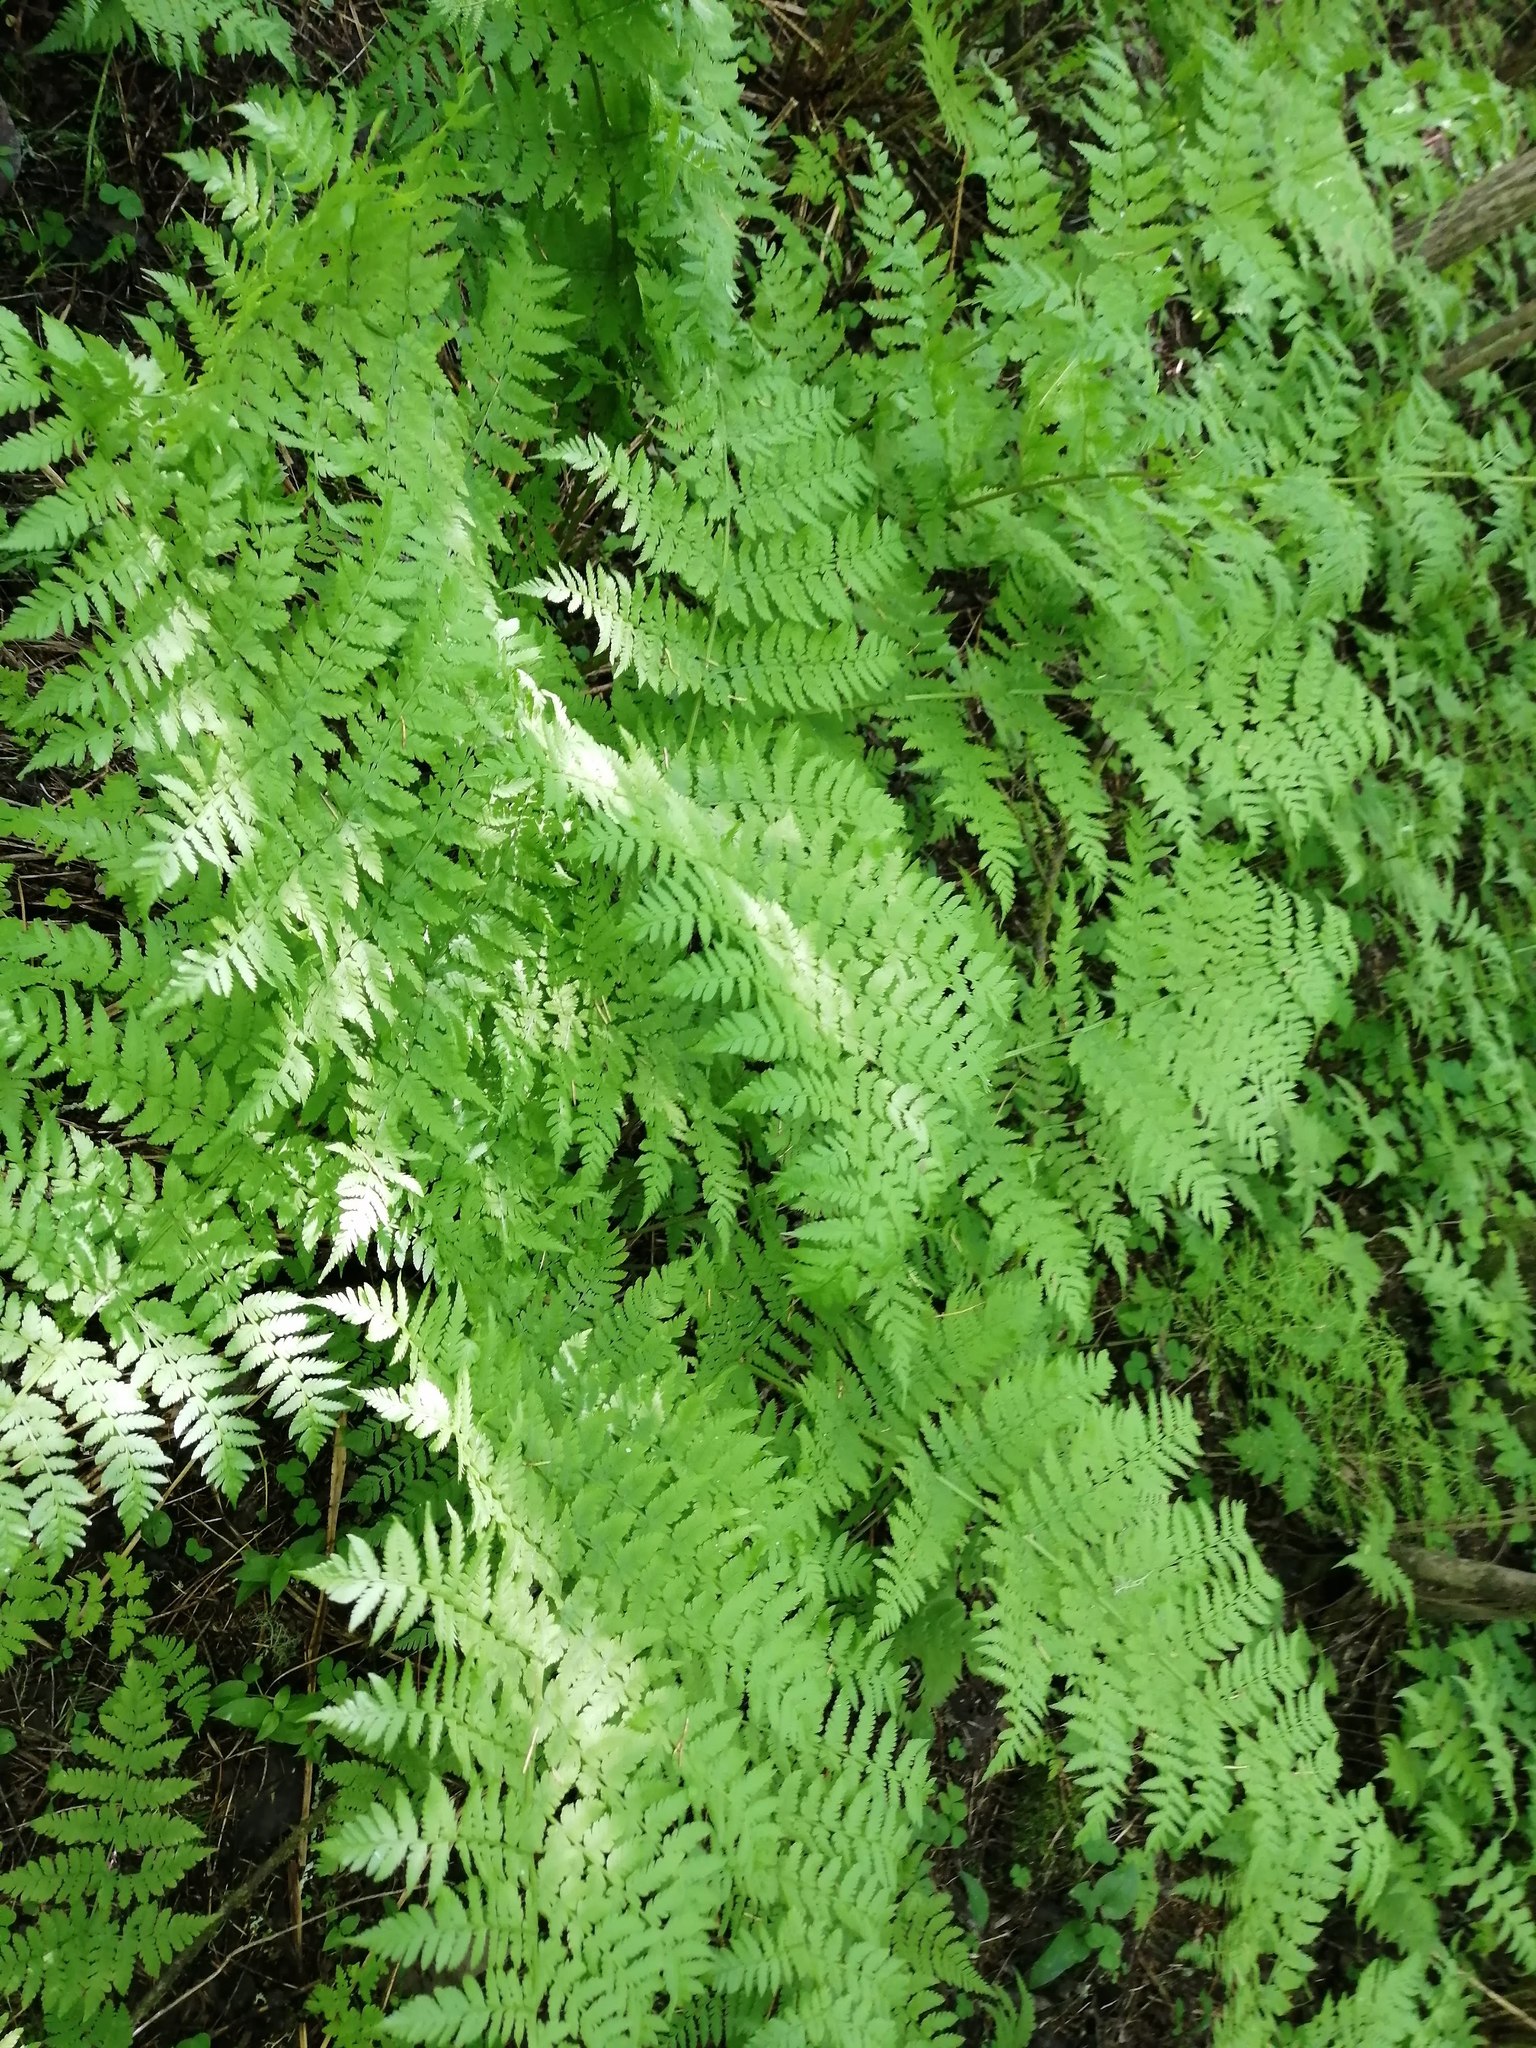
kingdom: Plantae
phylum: Tracheophyta
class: Polypodiopsida
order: Polypodiales
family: Dryopteridaceae
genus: Dryopteris
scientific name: Dryopteris expansa
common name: Northern buckler fern
